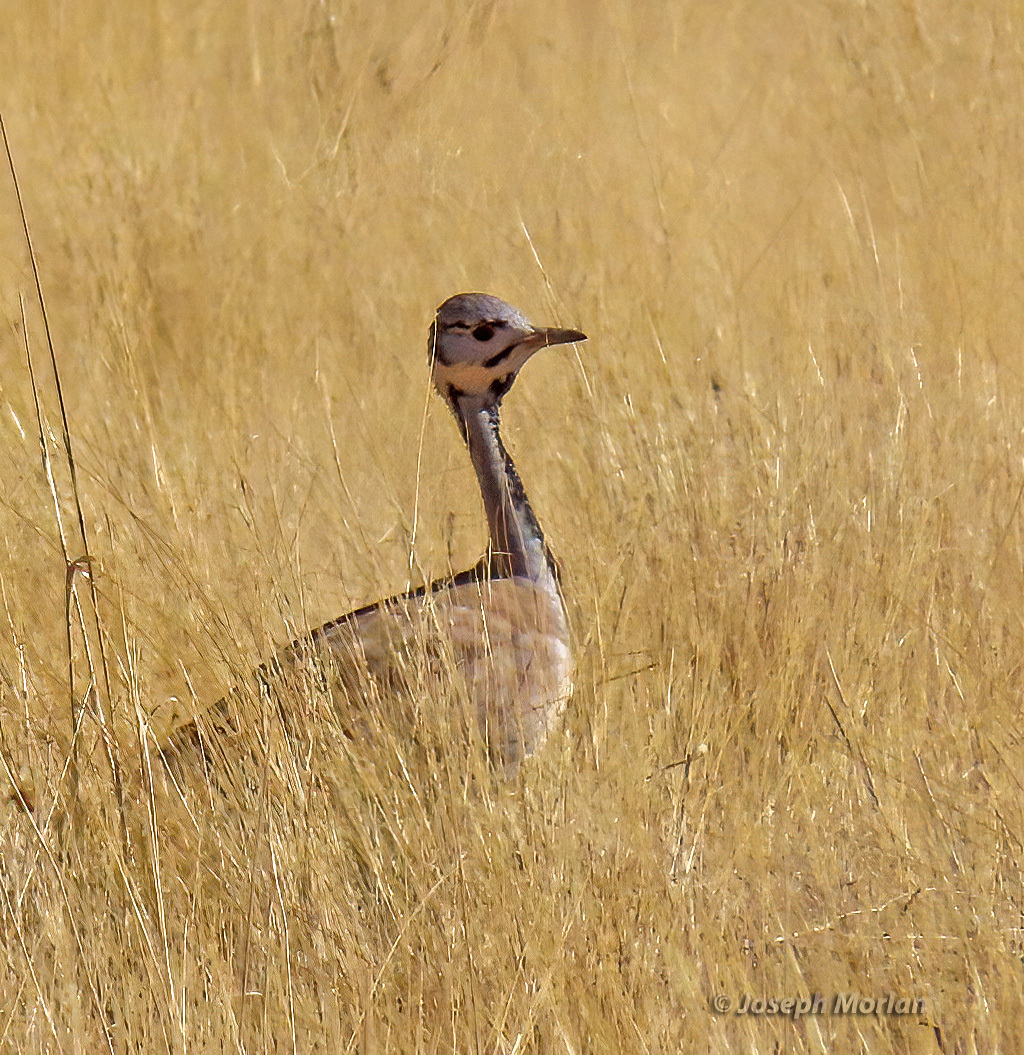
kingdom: Animalia
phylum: Chordata
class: Aves
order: Otidiformes
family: Otididae
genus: Heterotetrax
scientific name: Heterotetrax rueppelii
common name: Rüppell's korhaan
